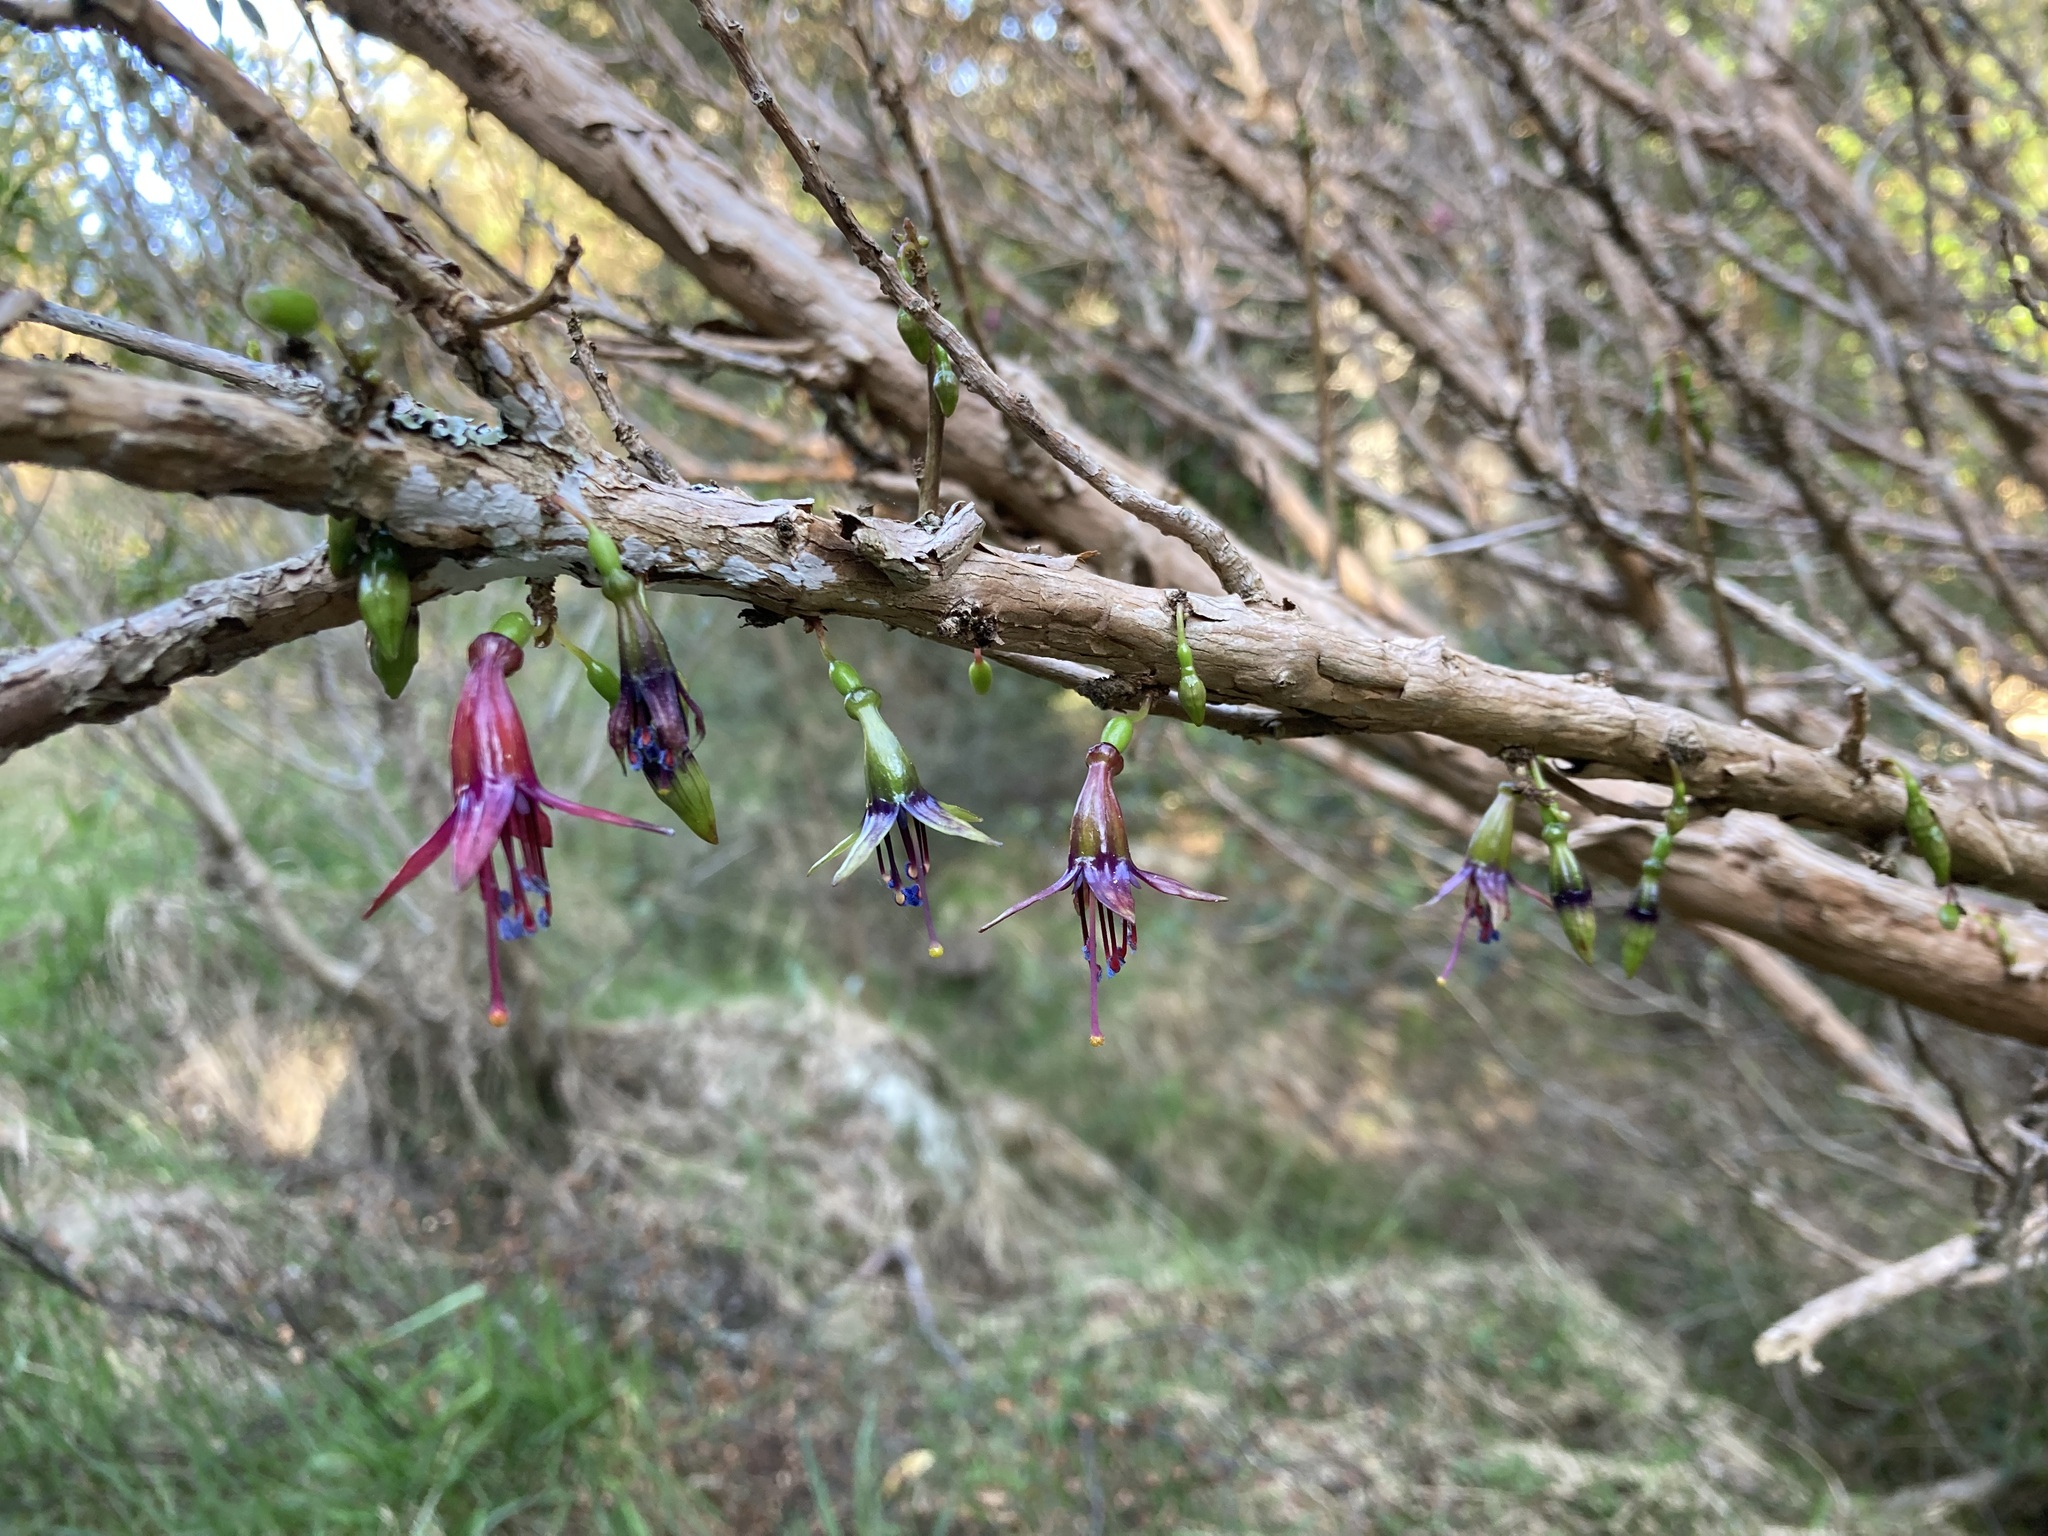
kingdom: Plantae
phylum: Tracheophyta
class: Magnoliopsida
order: Myrtales
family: Onagraceae
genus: Fuchsia
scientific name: Fuchsia excorticata
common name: Tree fuchsia
